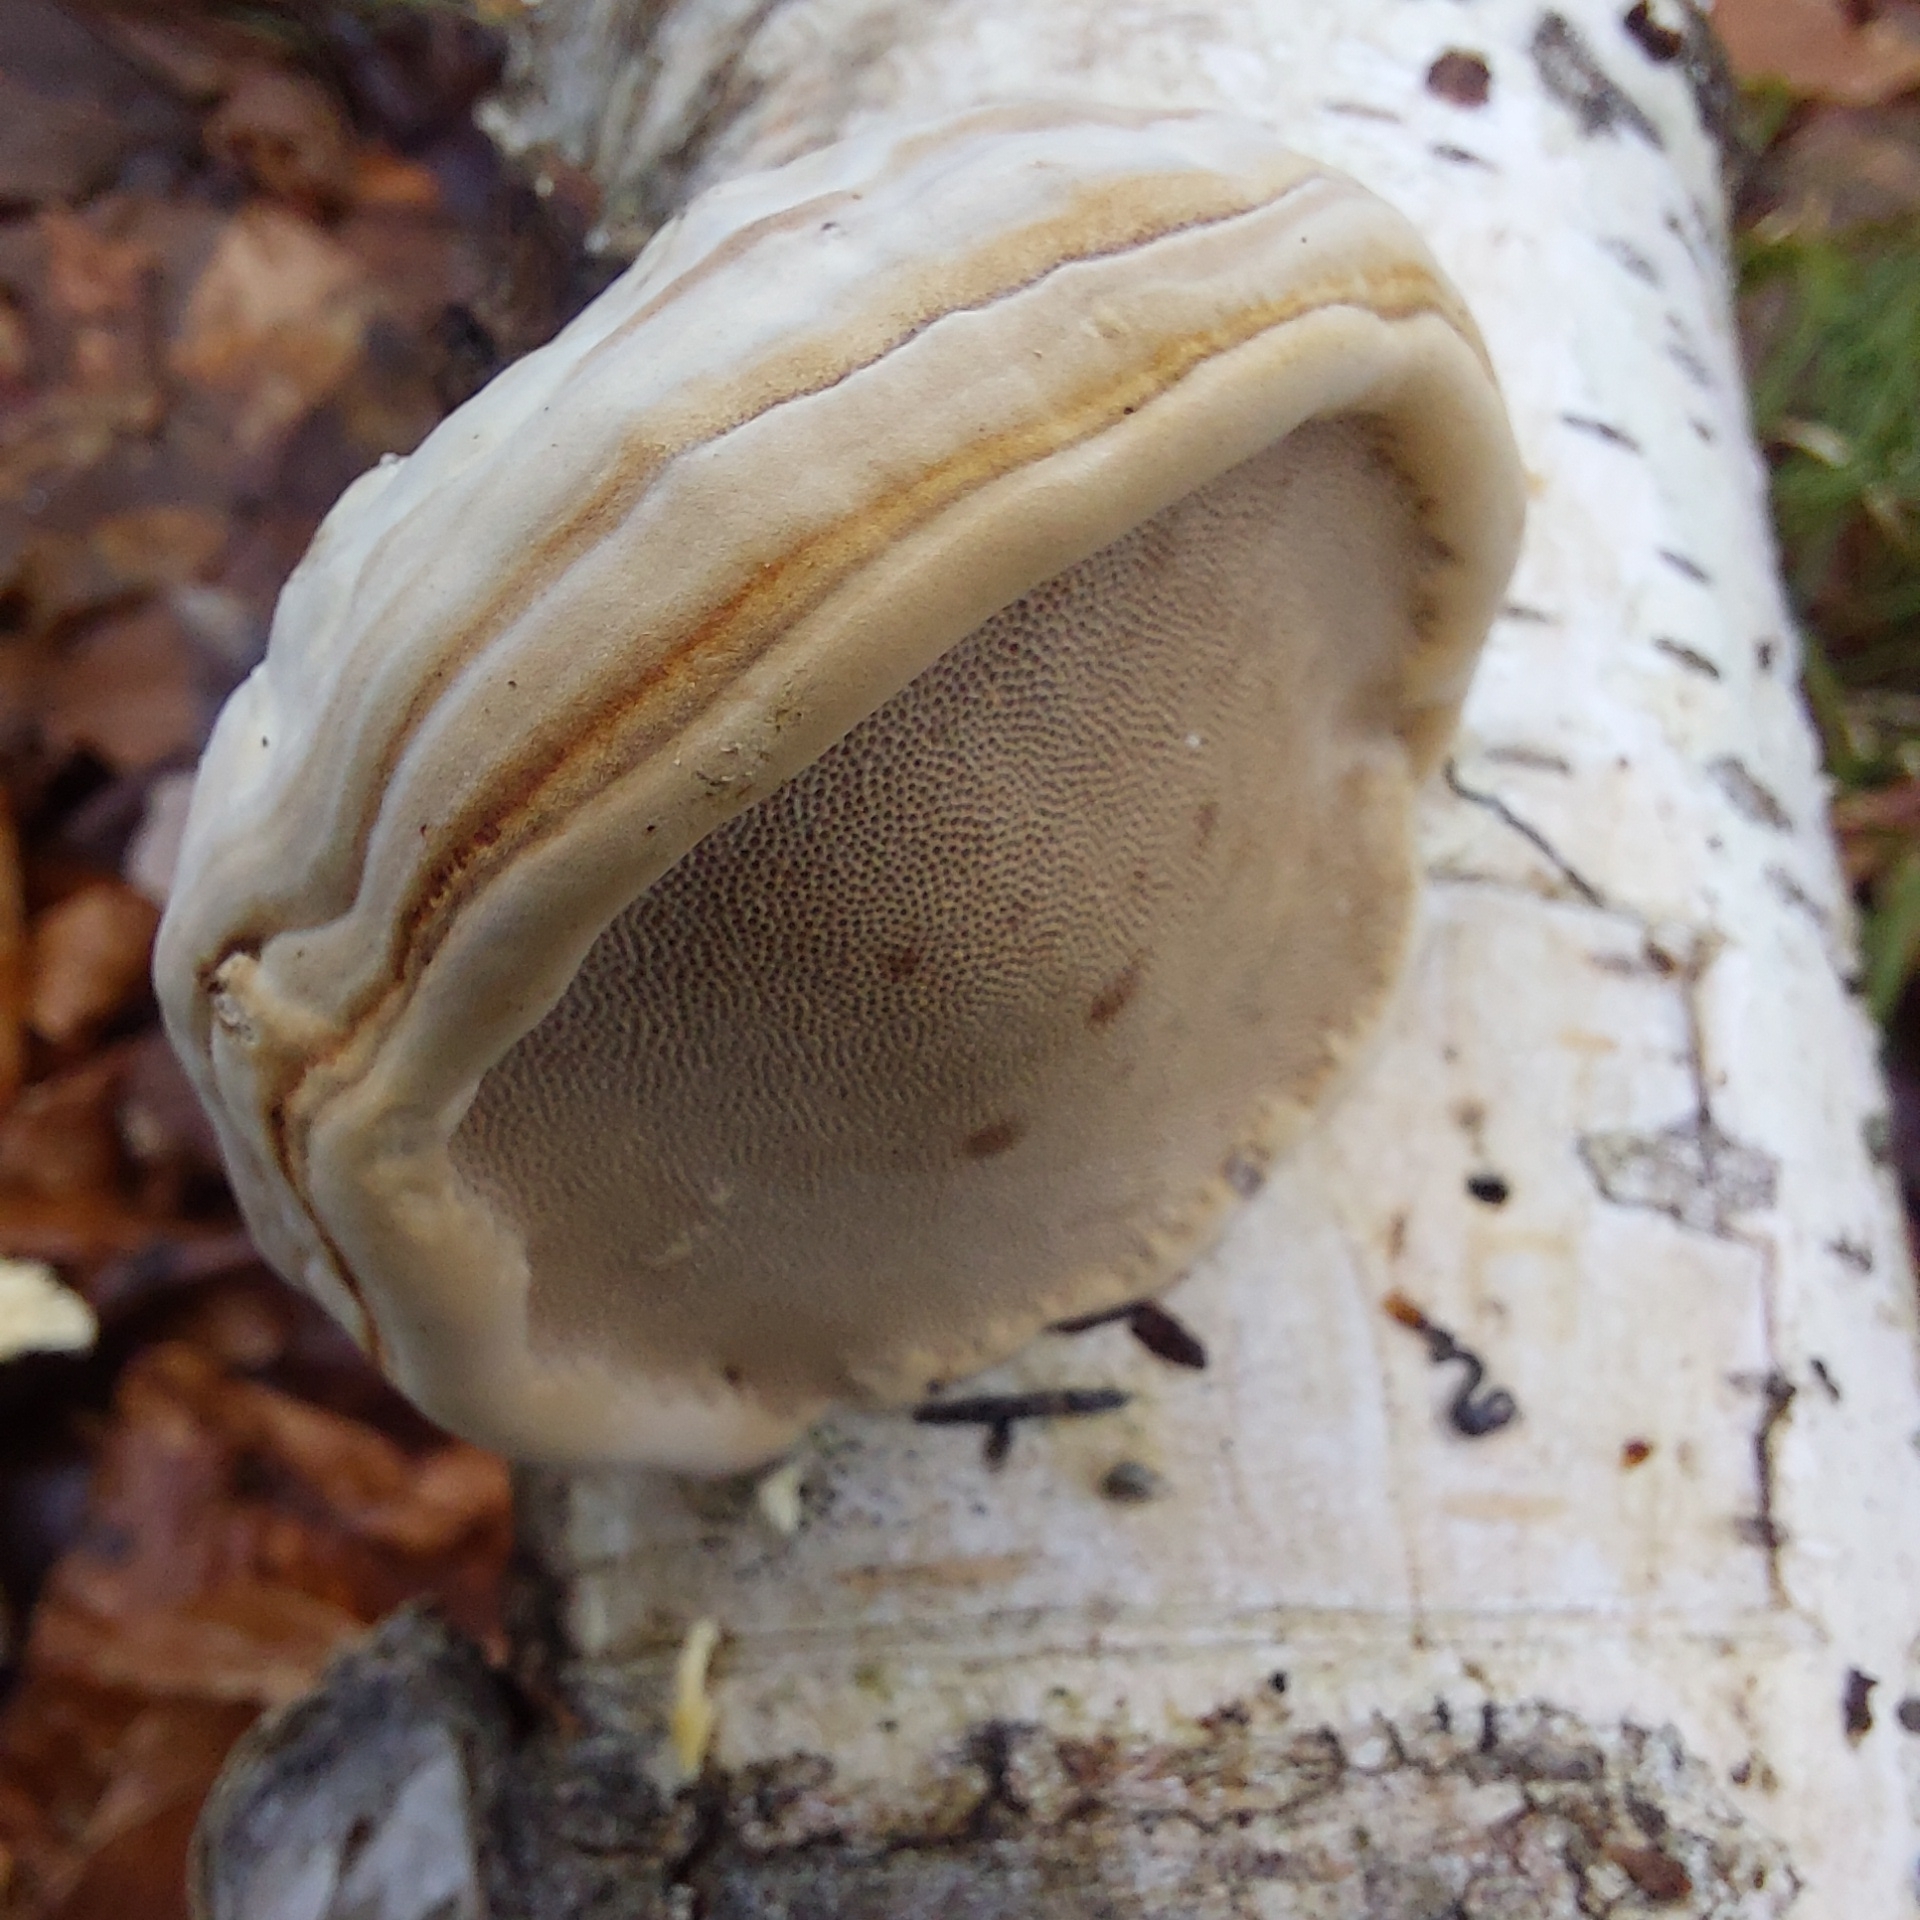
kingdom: Fungi
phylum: Basidiomycota
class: Agaricomycetes
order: Polyporales
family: Polyporaceae
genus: Fomes
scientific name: Fomes fomentarius
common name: Hoof fungus
